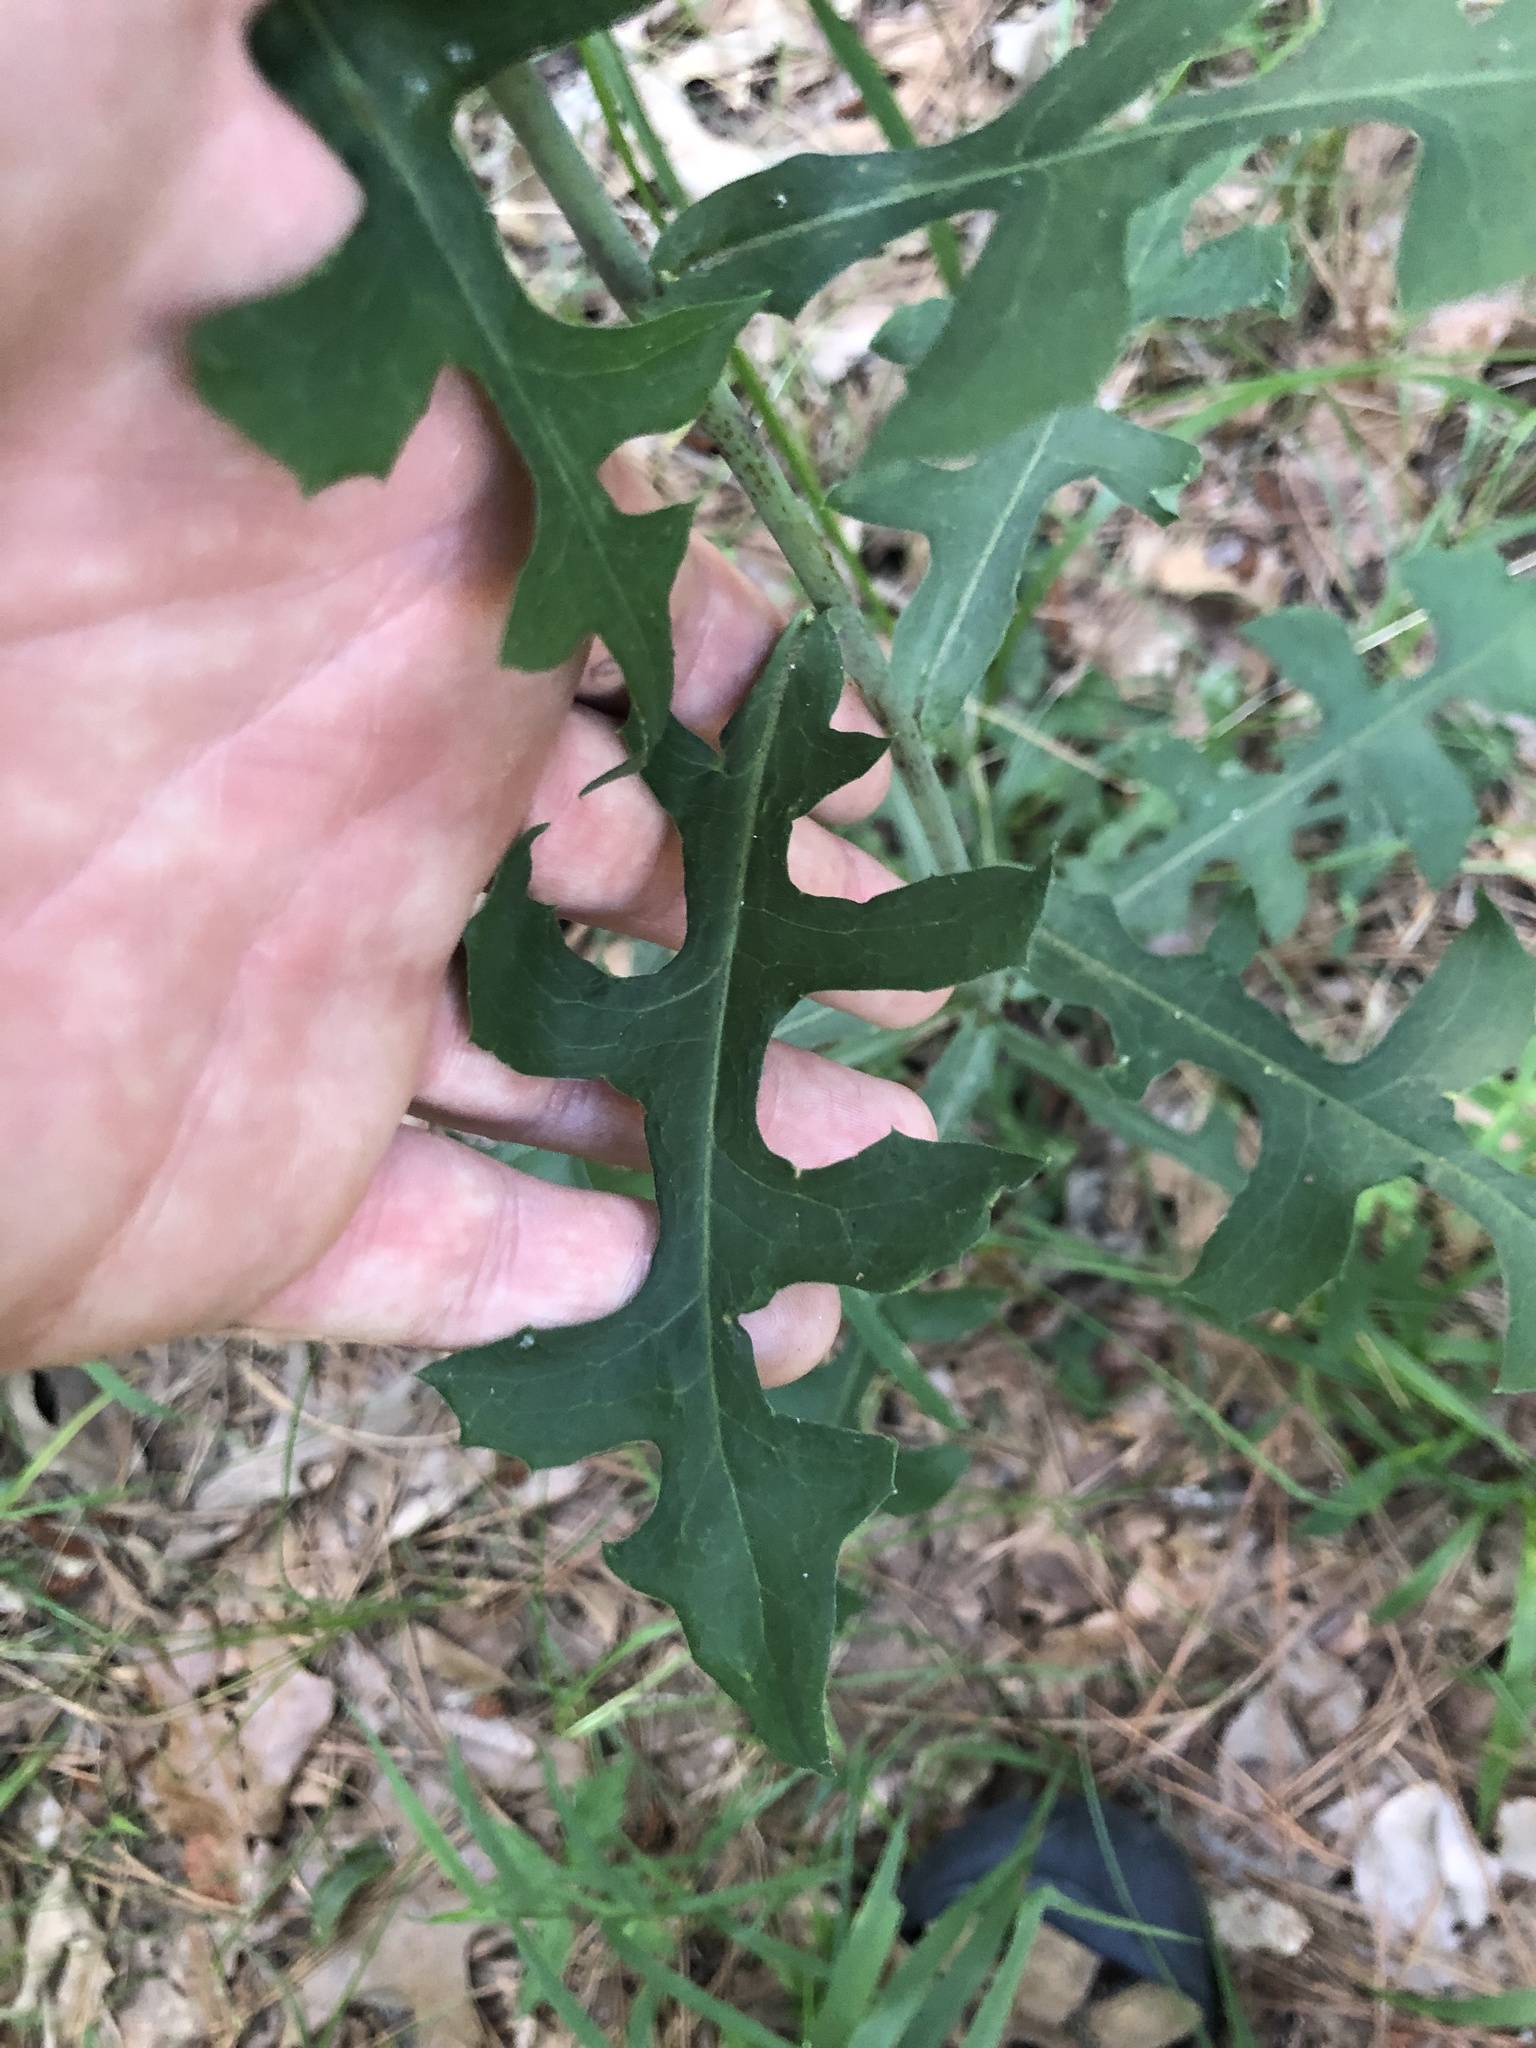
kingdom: Plantae
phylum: Tracheophyta
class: Magnoliopsida
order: Asterales
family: Asteraceae
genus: Lactuca
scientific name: Lactuca hirsuta
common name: Hairy lettuce
